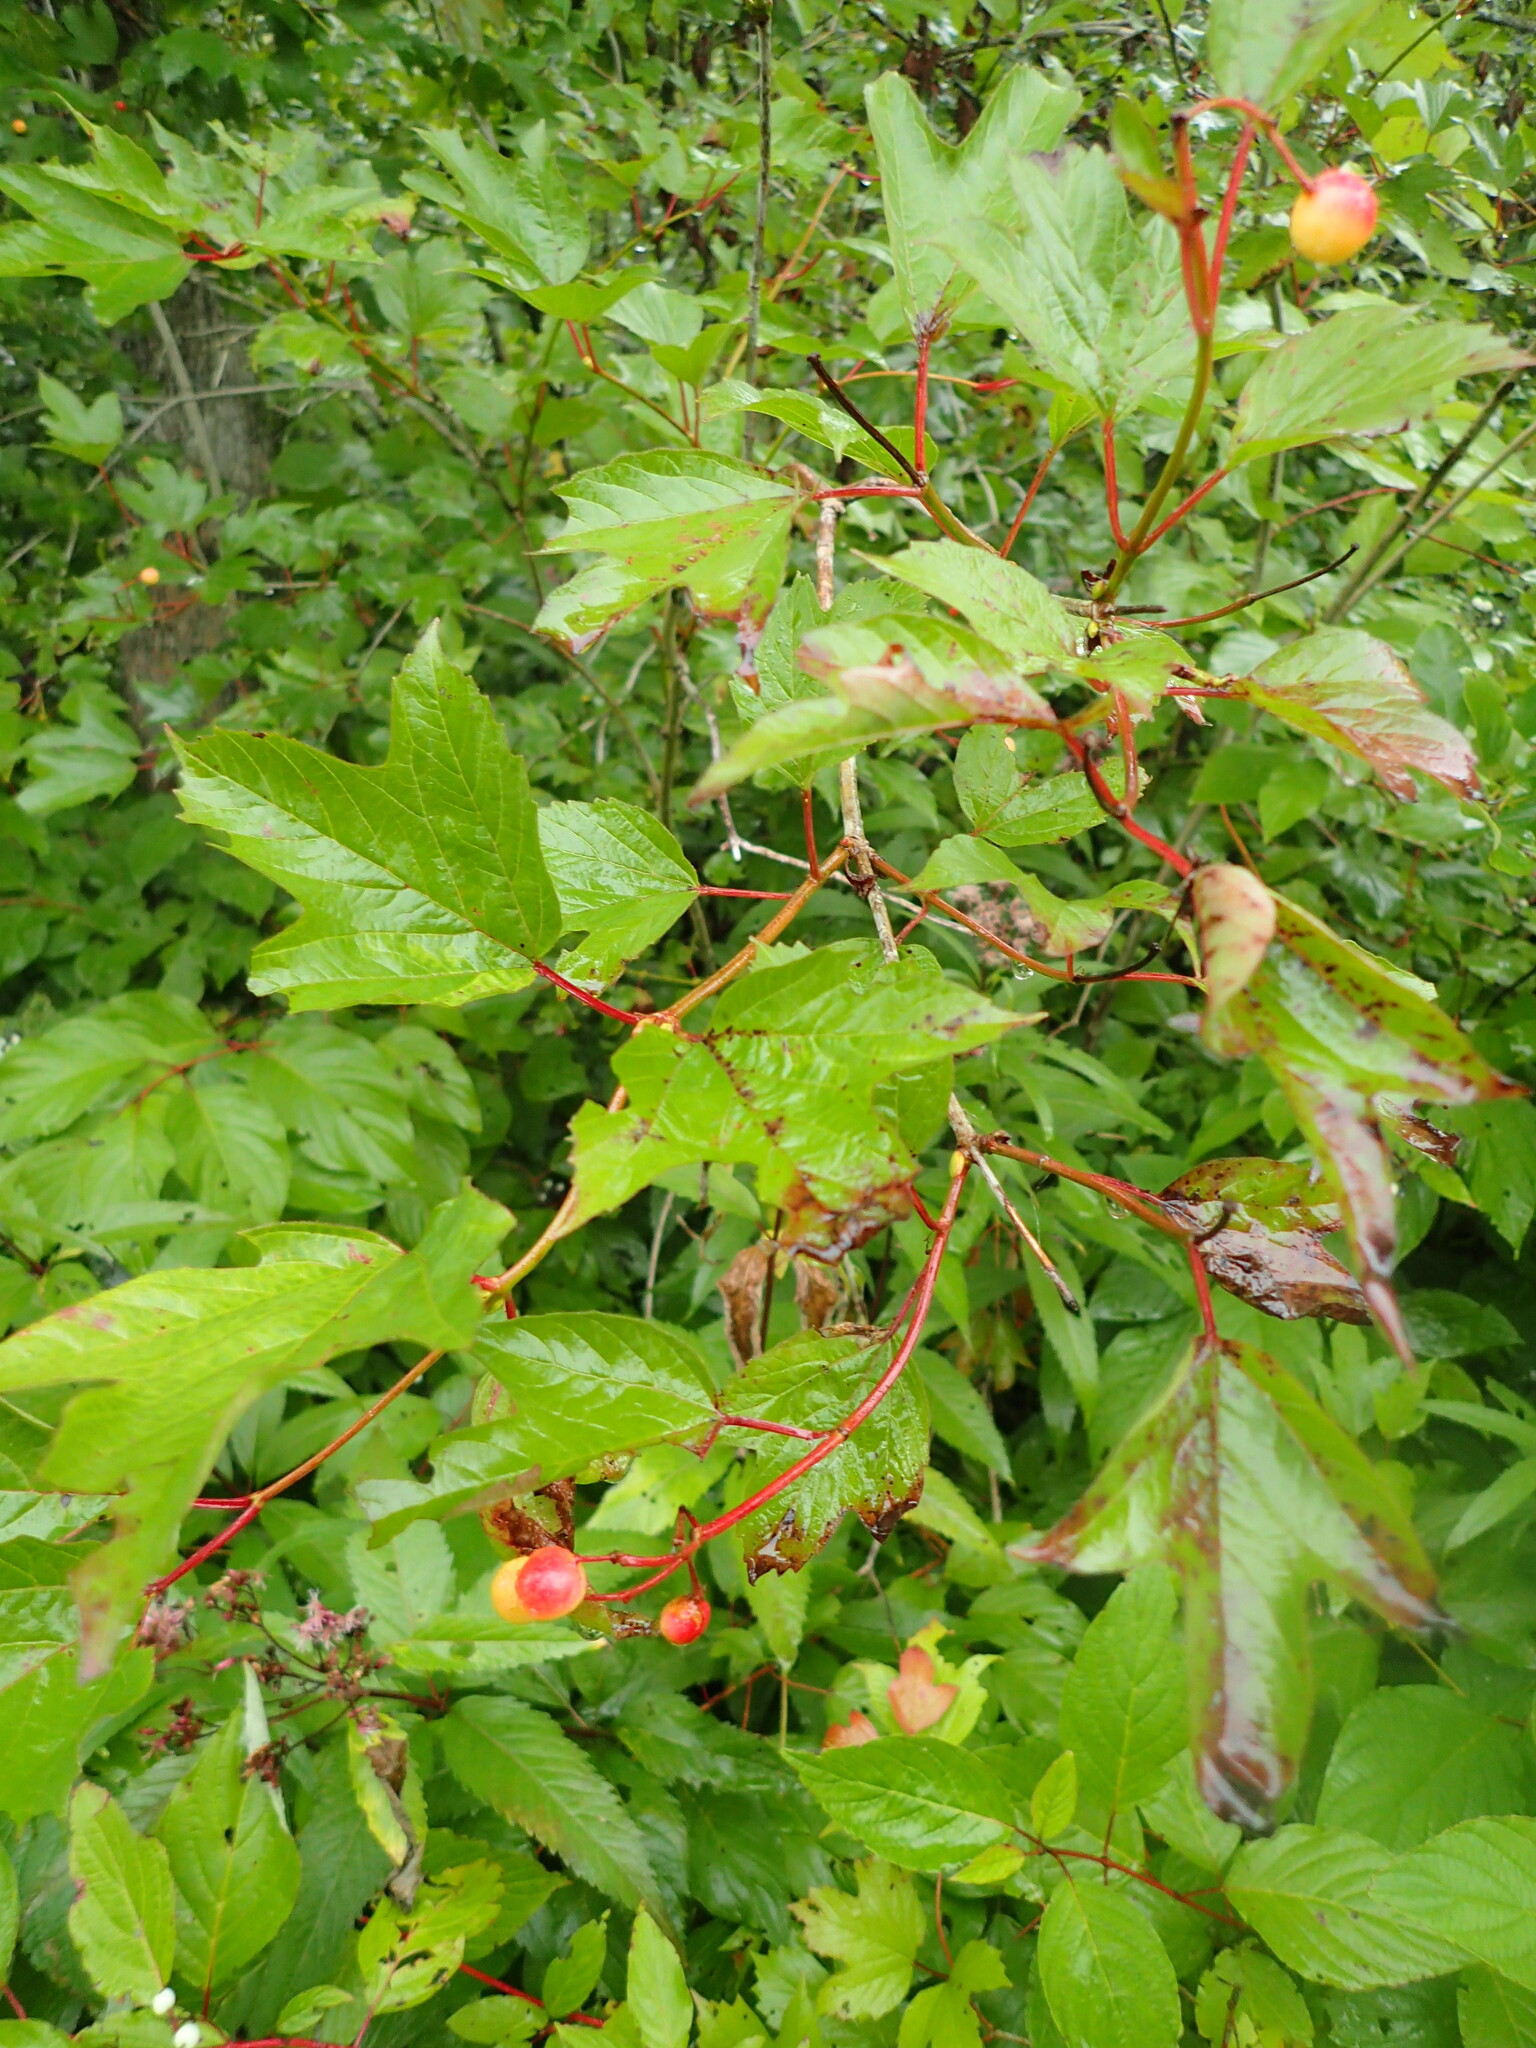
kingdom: Plantae
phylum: Tracheophyta
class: Magnoliopsida
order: Dipsacales
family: Viburnaceae
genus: Viburnum
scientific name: Viburnum opulus
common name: Guelder-rose
